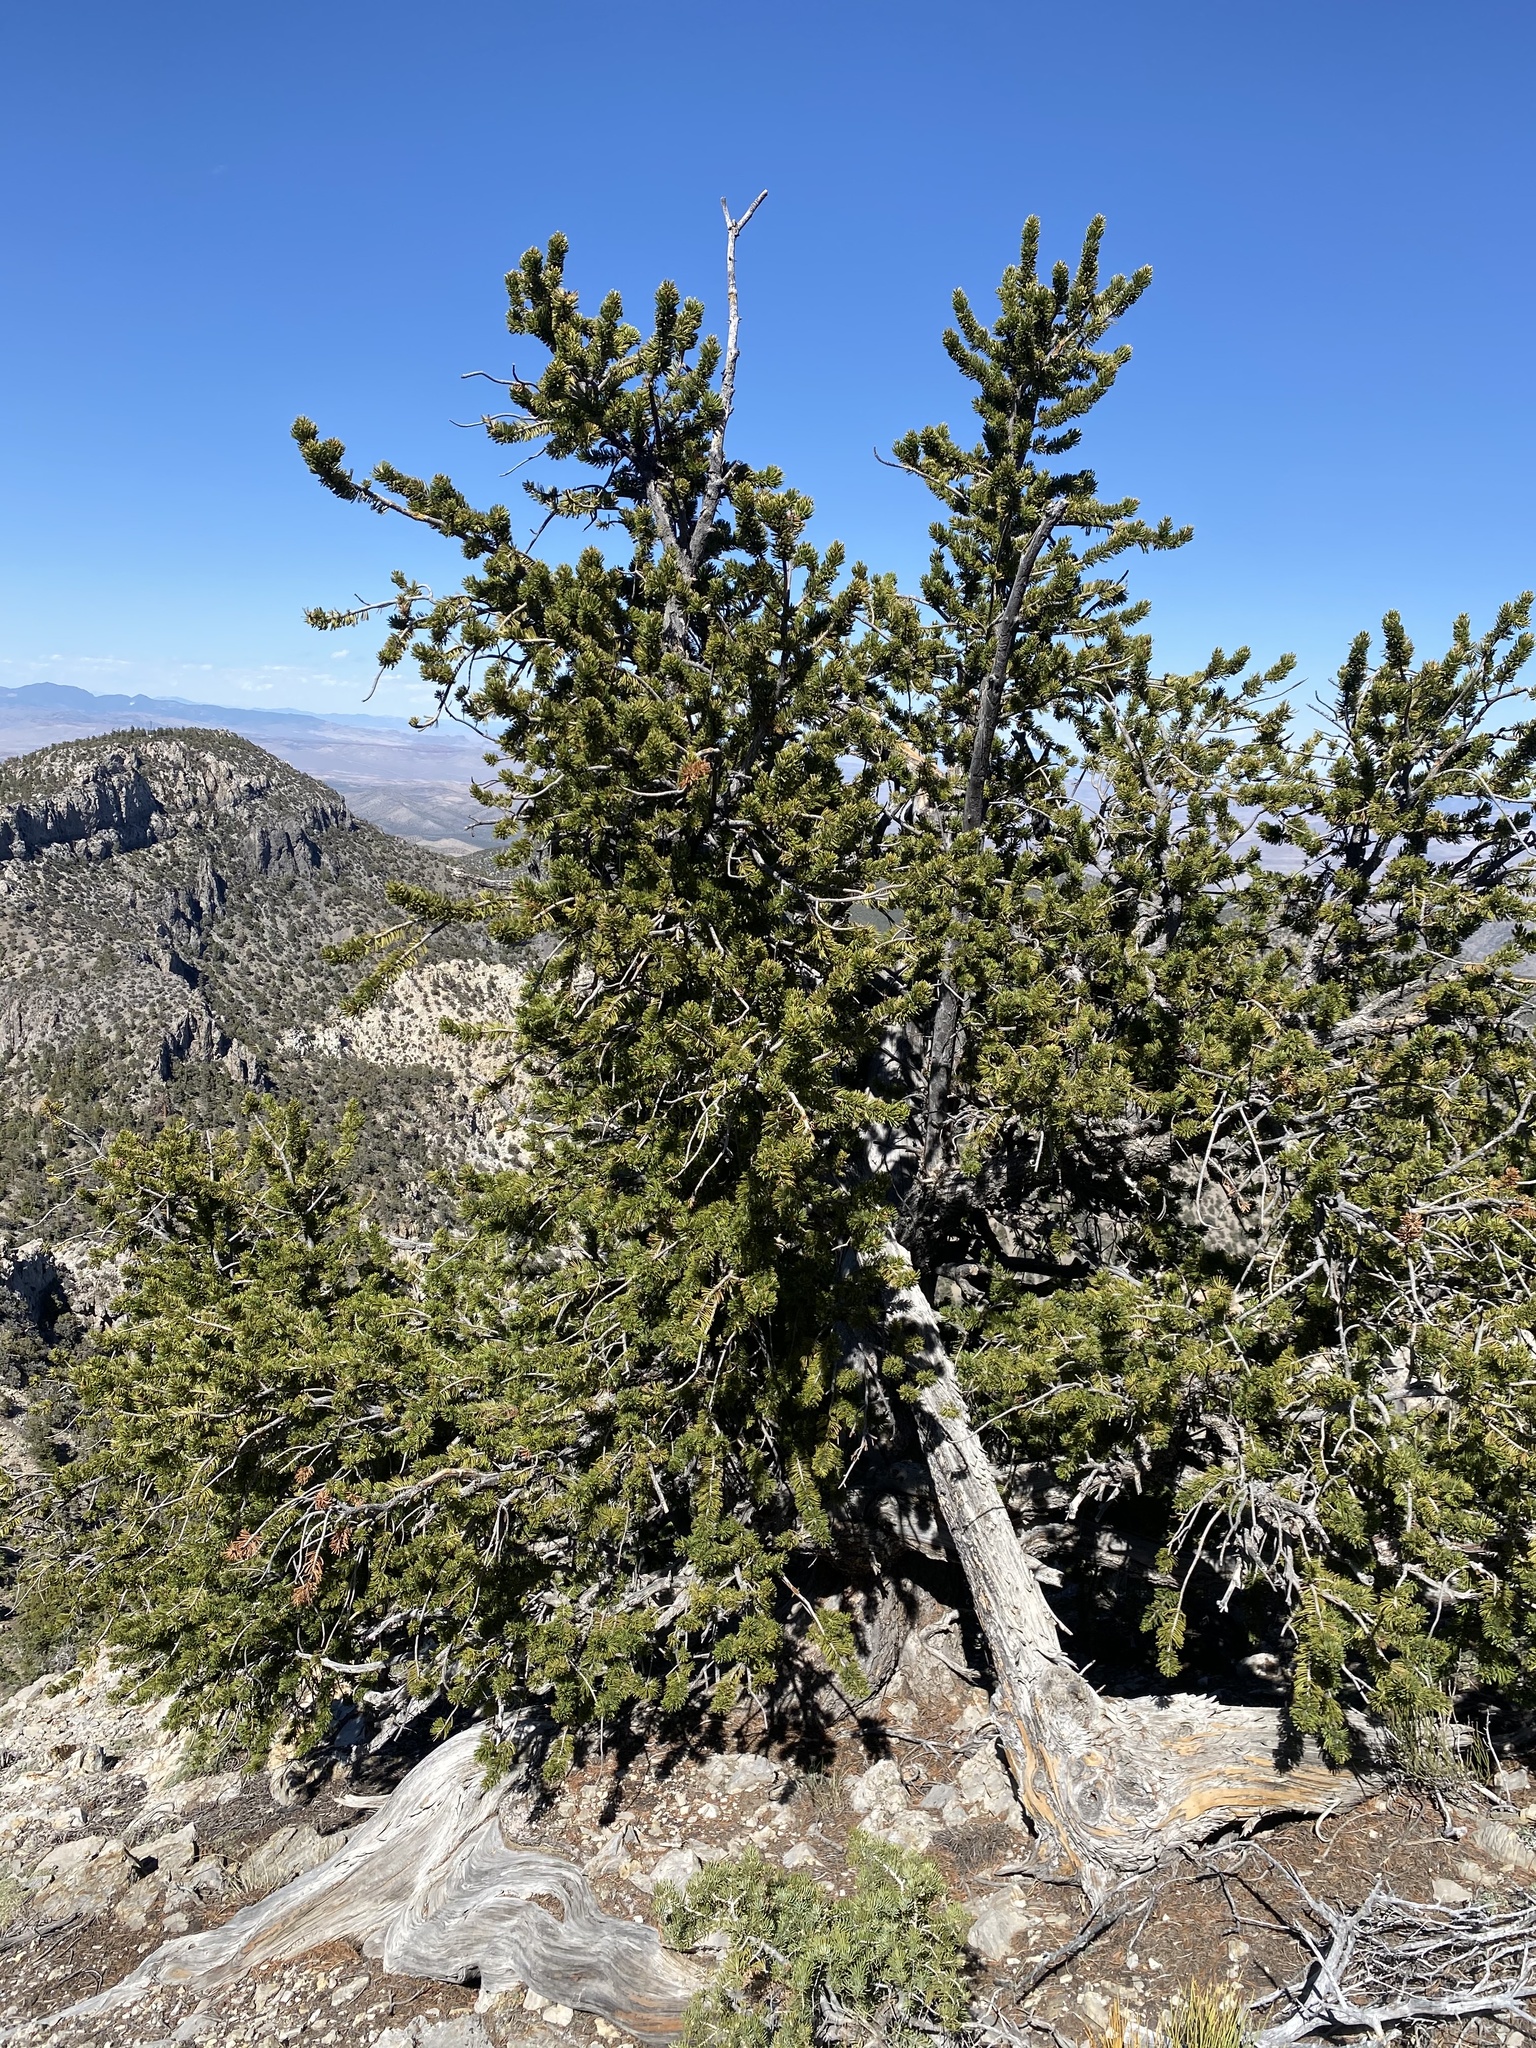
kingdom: Plantae
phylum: Tracheophyta
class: Pinopsida
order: Pinales
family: Pinaceae
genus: Pinus
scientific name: Pinus longaeva
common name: Intermountain bristlecone pine
